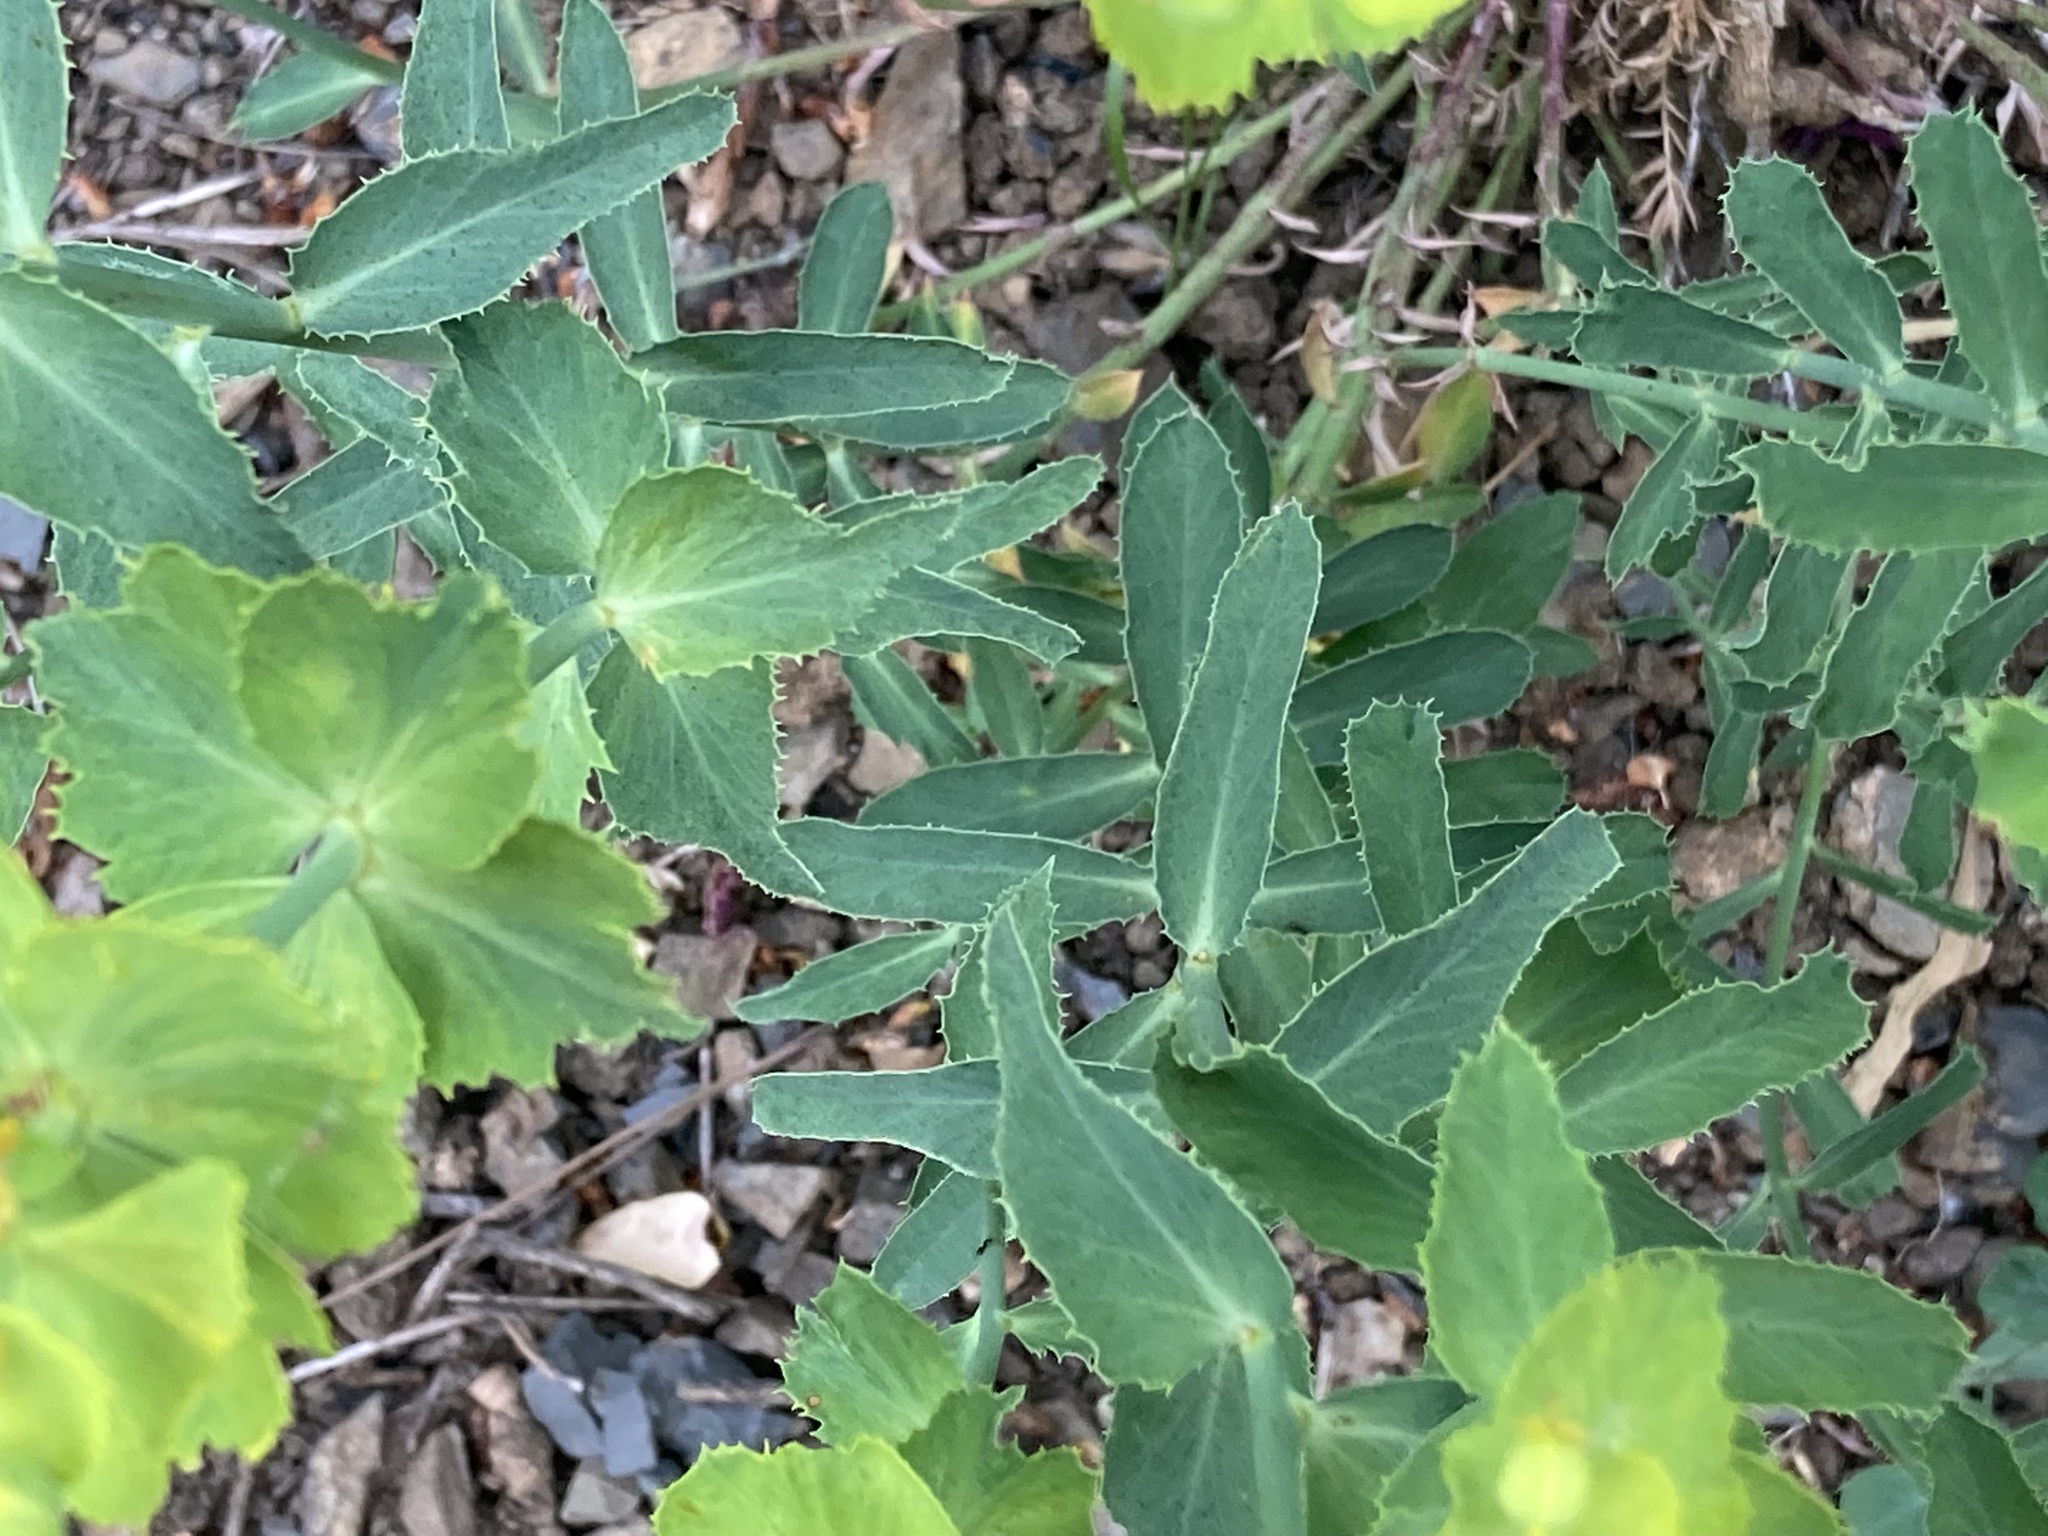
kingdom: Plantae
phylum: Tracheophyta
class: Magnoliopsida
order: Malpighiales
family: Euphorbiaceae
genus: Euphorbia
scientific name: Euphorbia serrata
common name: Serrate spurge
